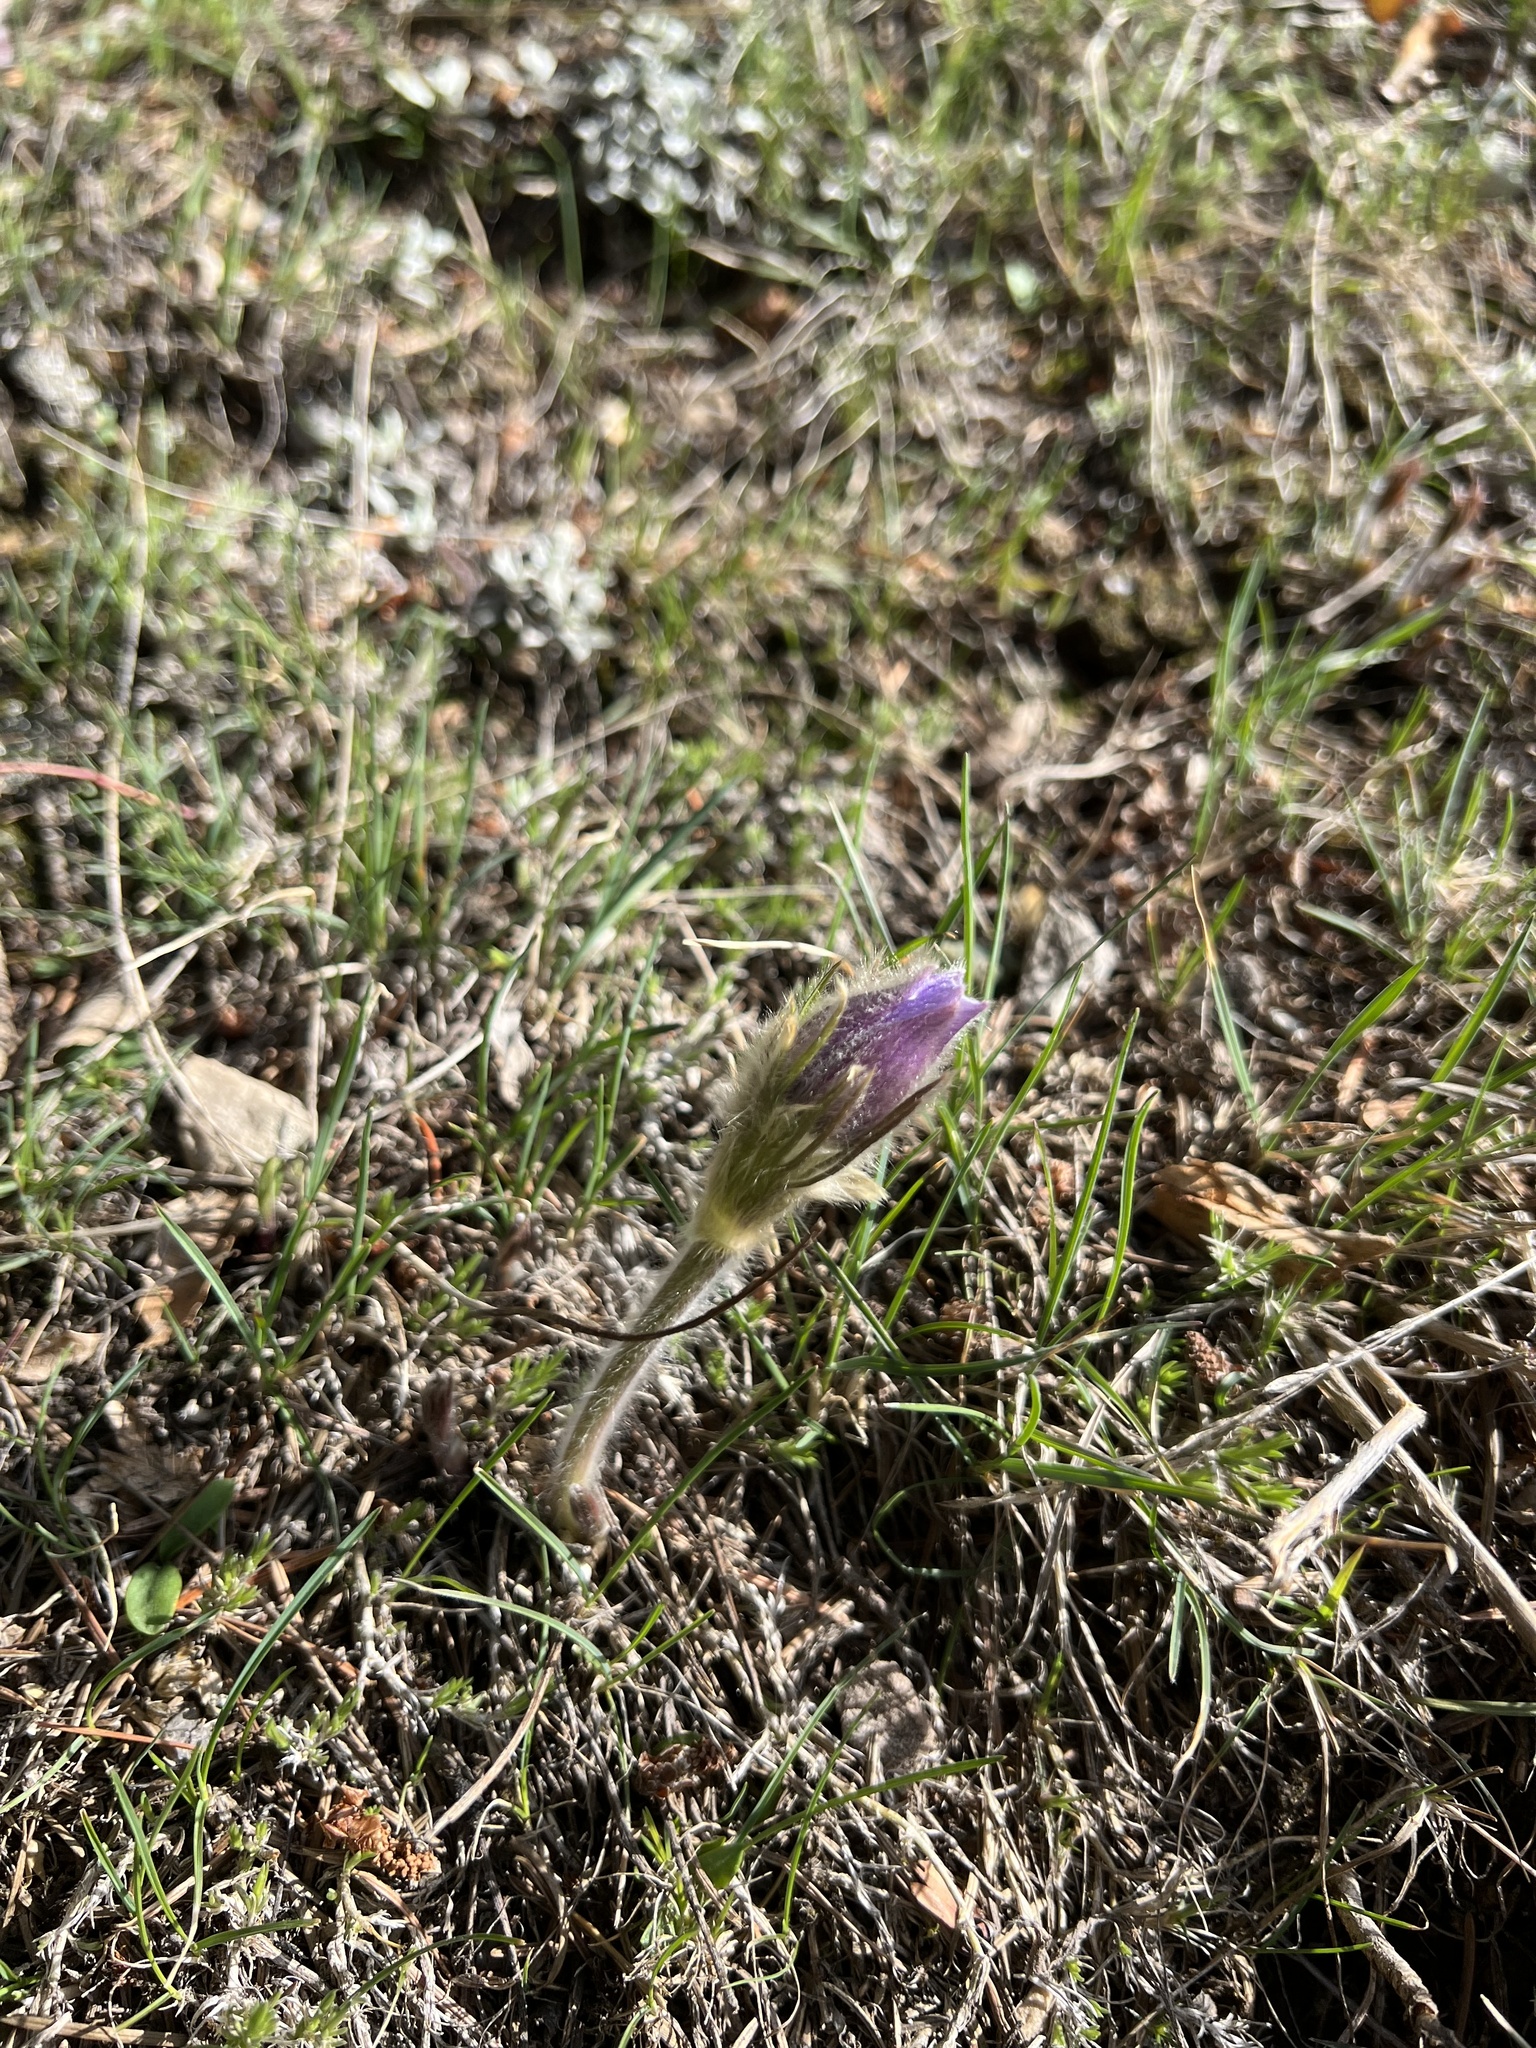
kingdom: Plantae
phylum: Tracheophyta
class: Magnoliopsida
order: Ranunculales
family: Ranunculaceae
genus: Pulsatilla
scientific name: Pulsatilla nuttalliana
